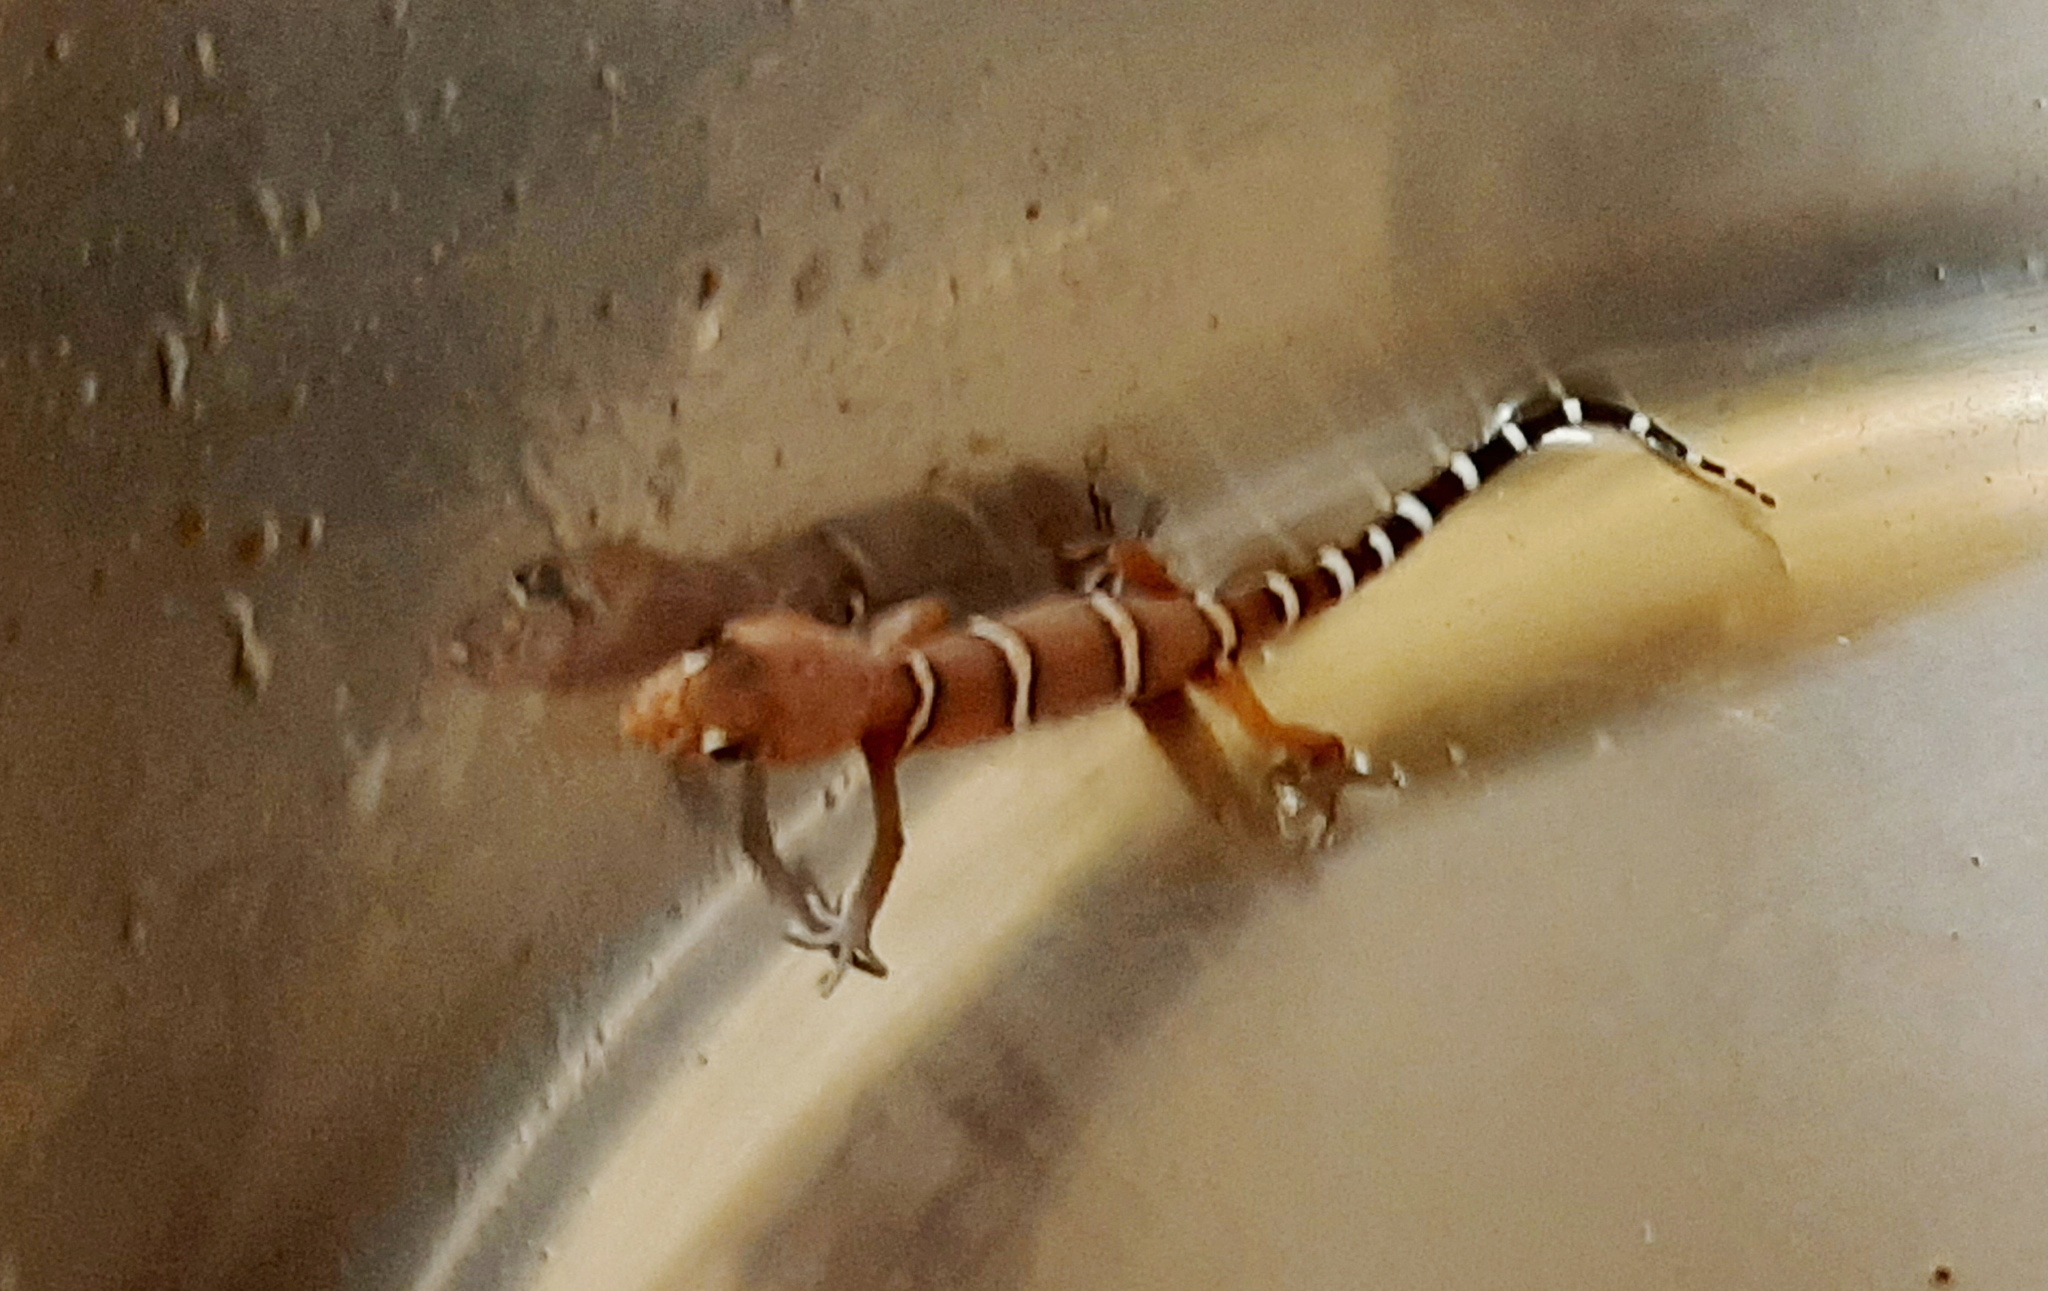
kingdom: Animalia
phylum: Chordata
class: Squamata
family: Eublepharidae
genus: Coleonyx
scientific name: Coleonyx elegans
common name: Yucatan banded gecko
